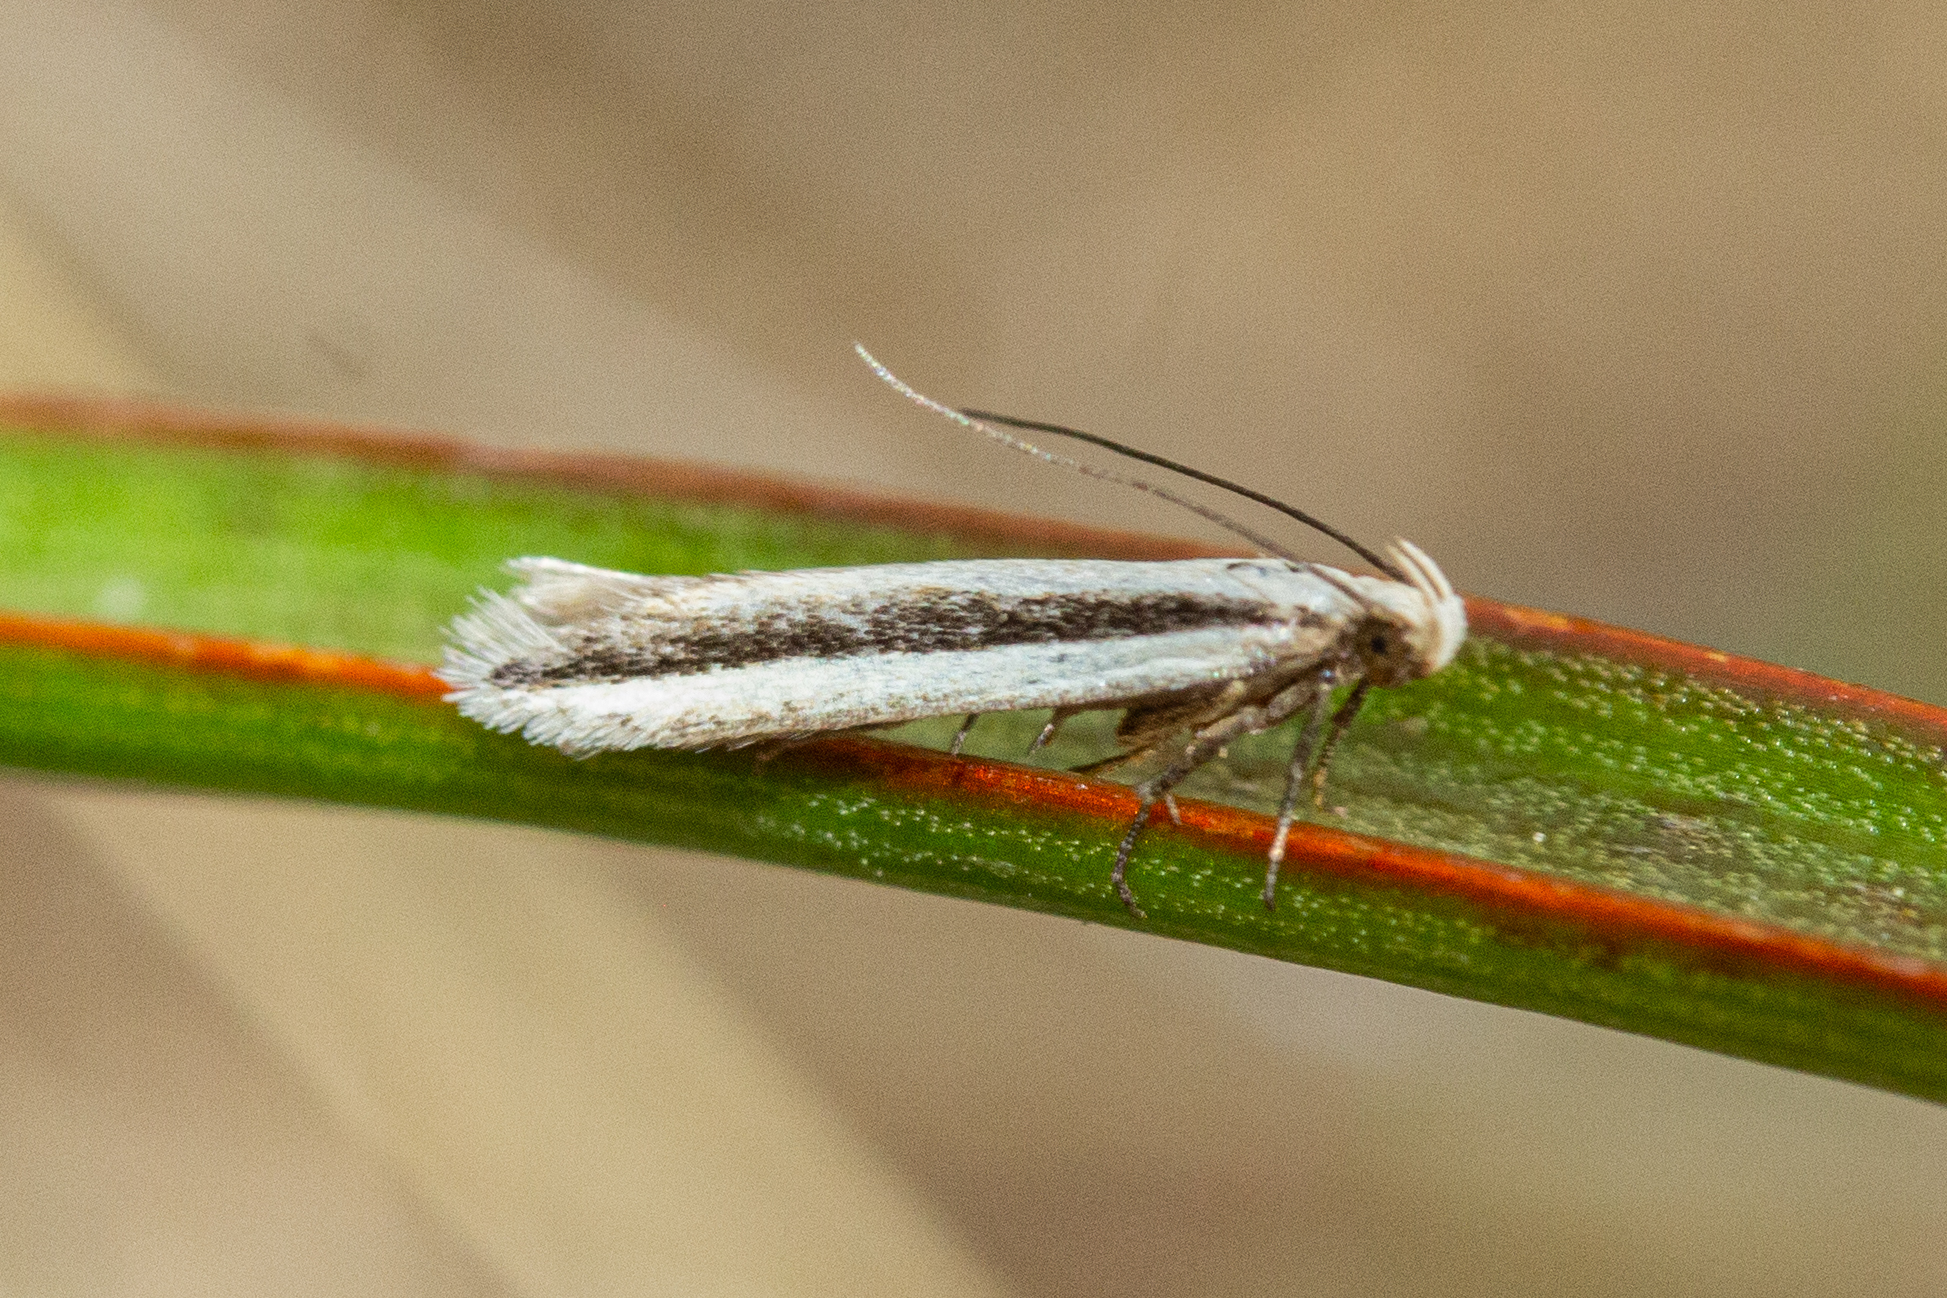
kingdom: Animalia
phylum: Arthropoda
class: Insecta
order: Lepidoptera
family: Gelechiidae
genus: Kiwaia
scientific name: Kiwaia monophragma
